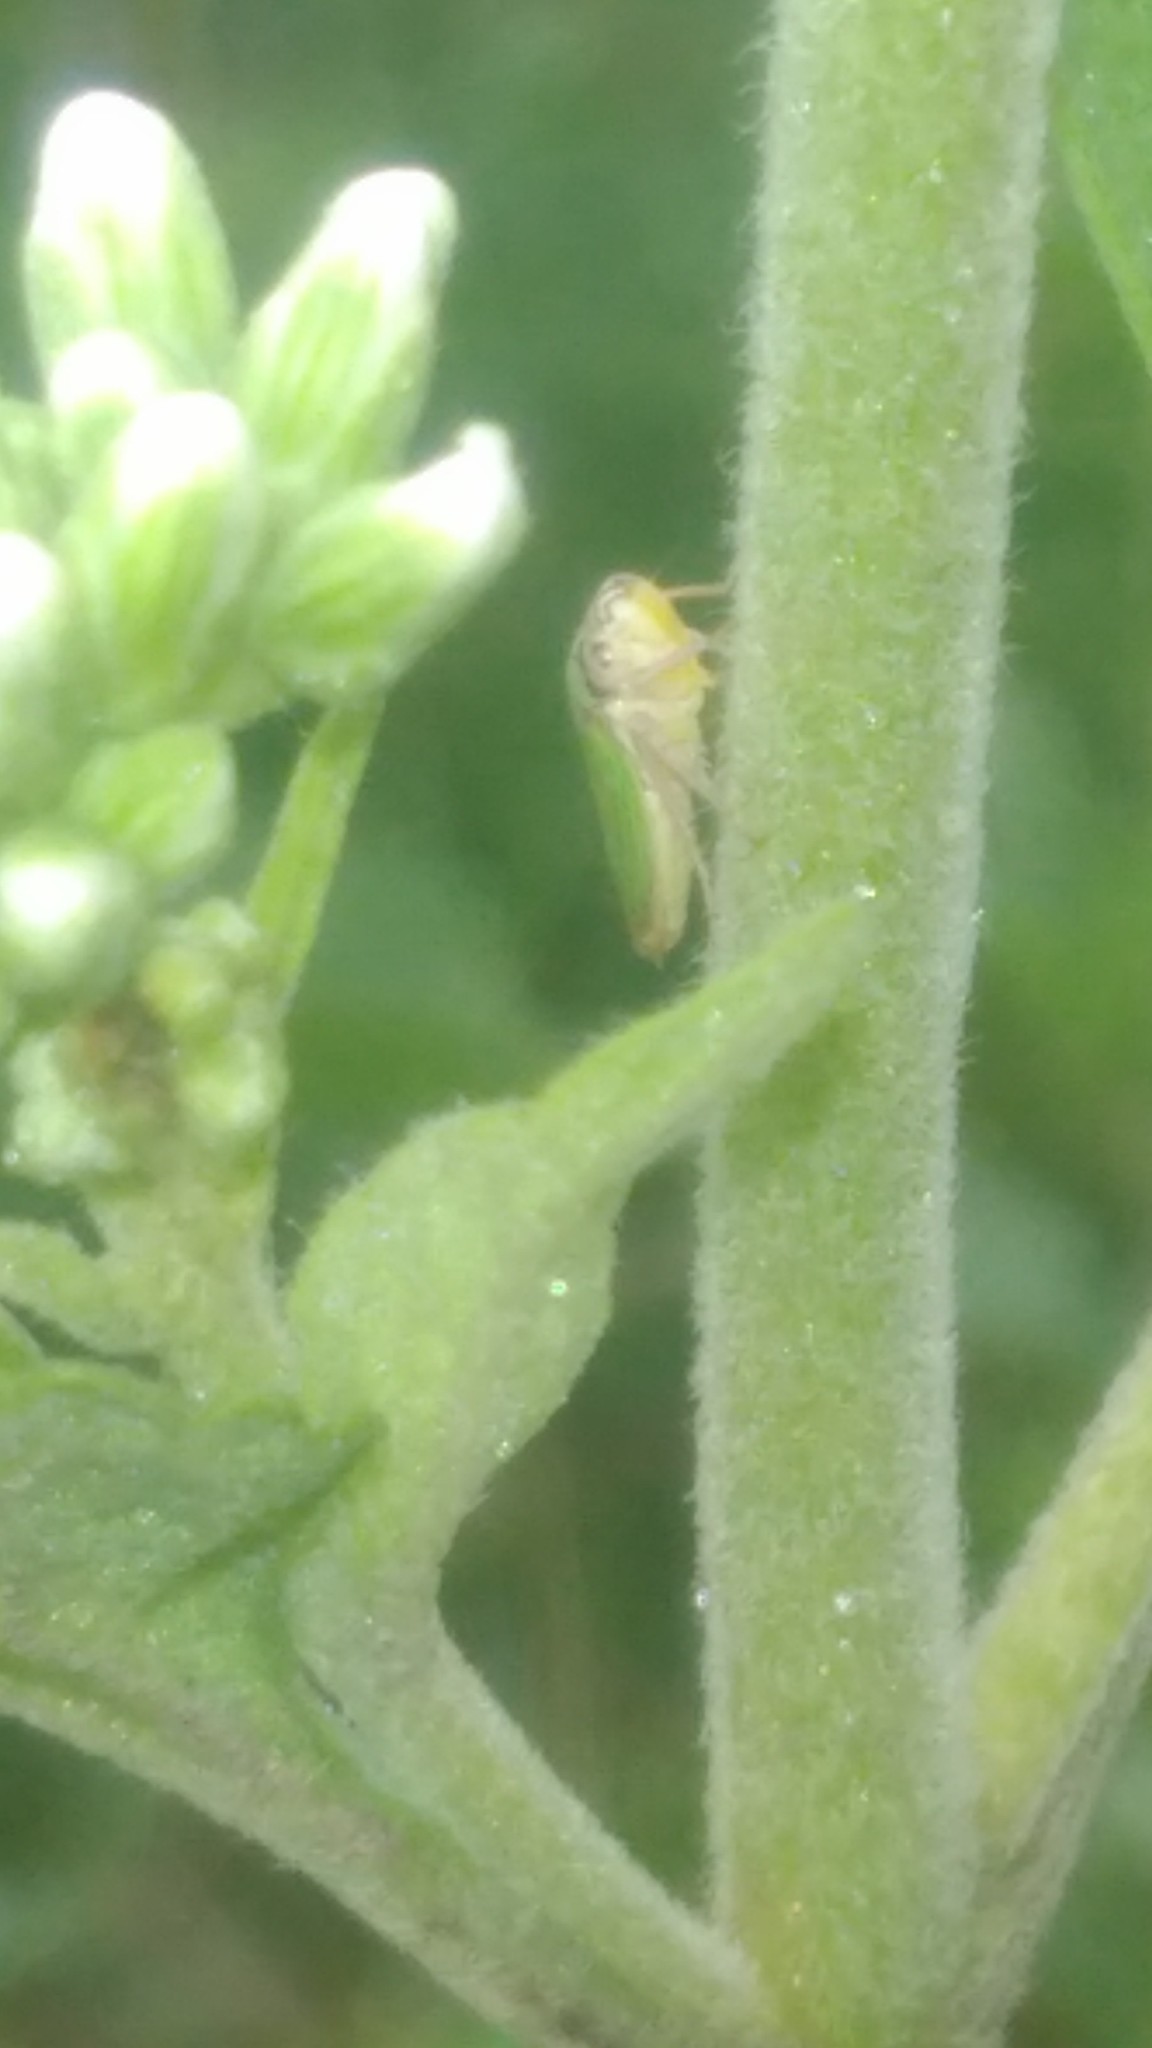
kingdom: Animalia
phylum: Arthropoda
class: Insecta
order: Hemiptera
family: Cicadellidae
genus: Bucephalogonia
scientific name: Bucephalogonia xanthophis
